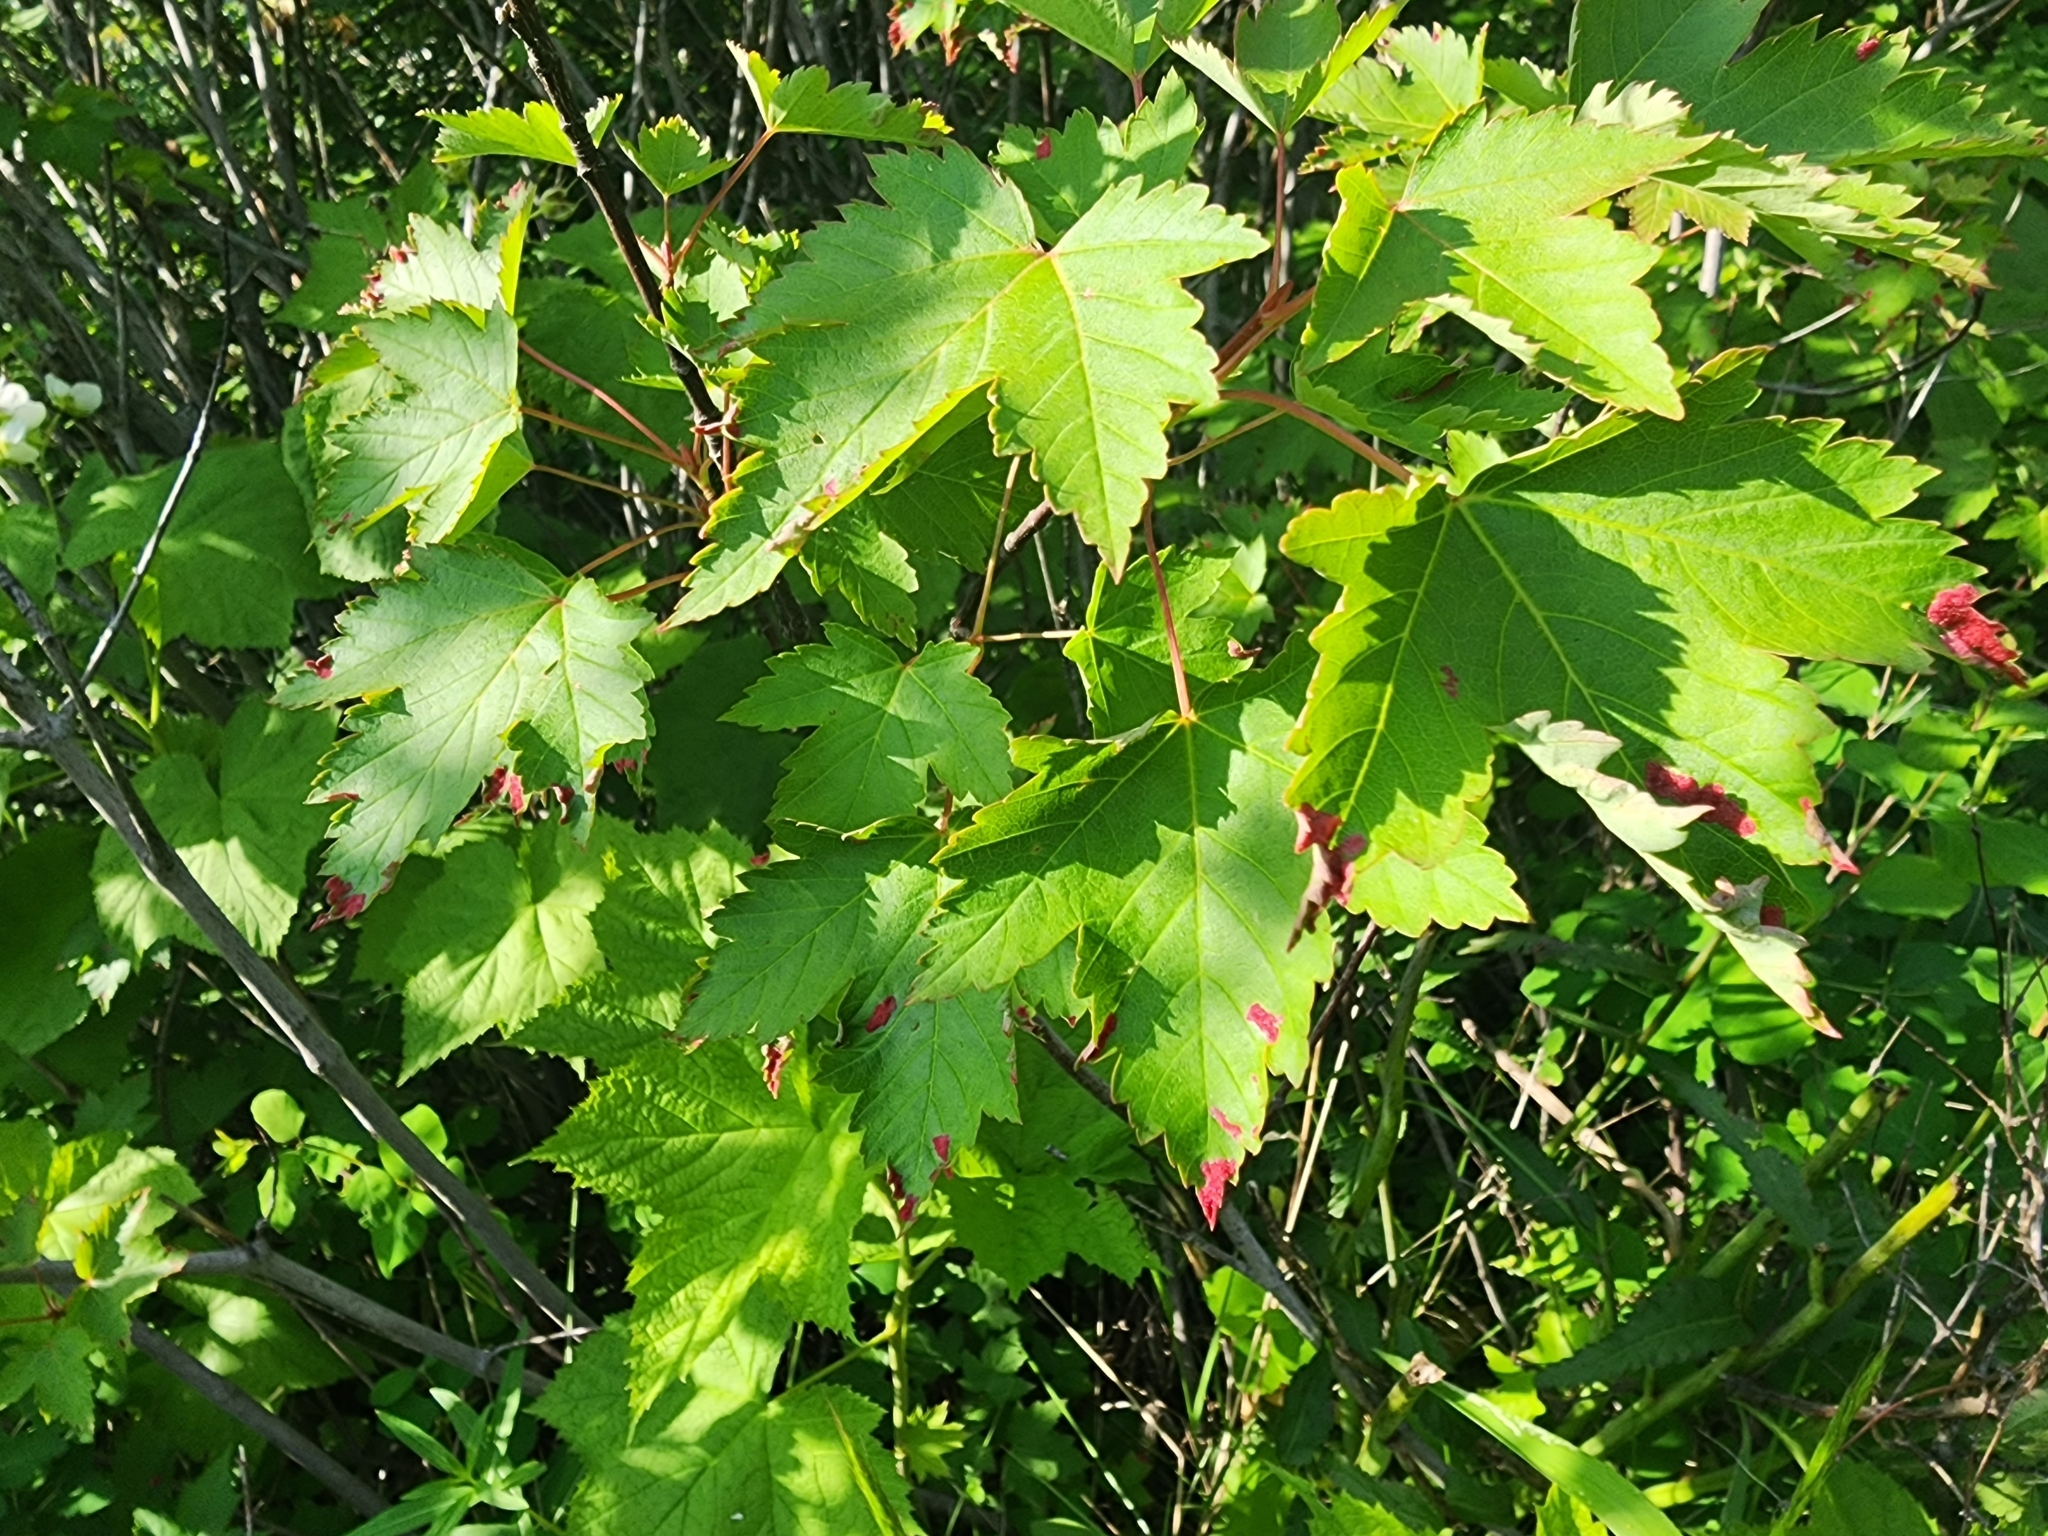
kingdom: Plantae
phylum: Tracheophyta
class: Magnoliopsida
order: Sapindales
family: Sapindaceae
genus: Acer
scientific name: Acer glabrum
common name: Rocky mountain maple
